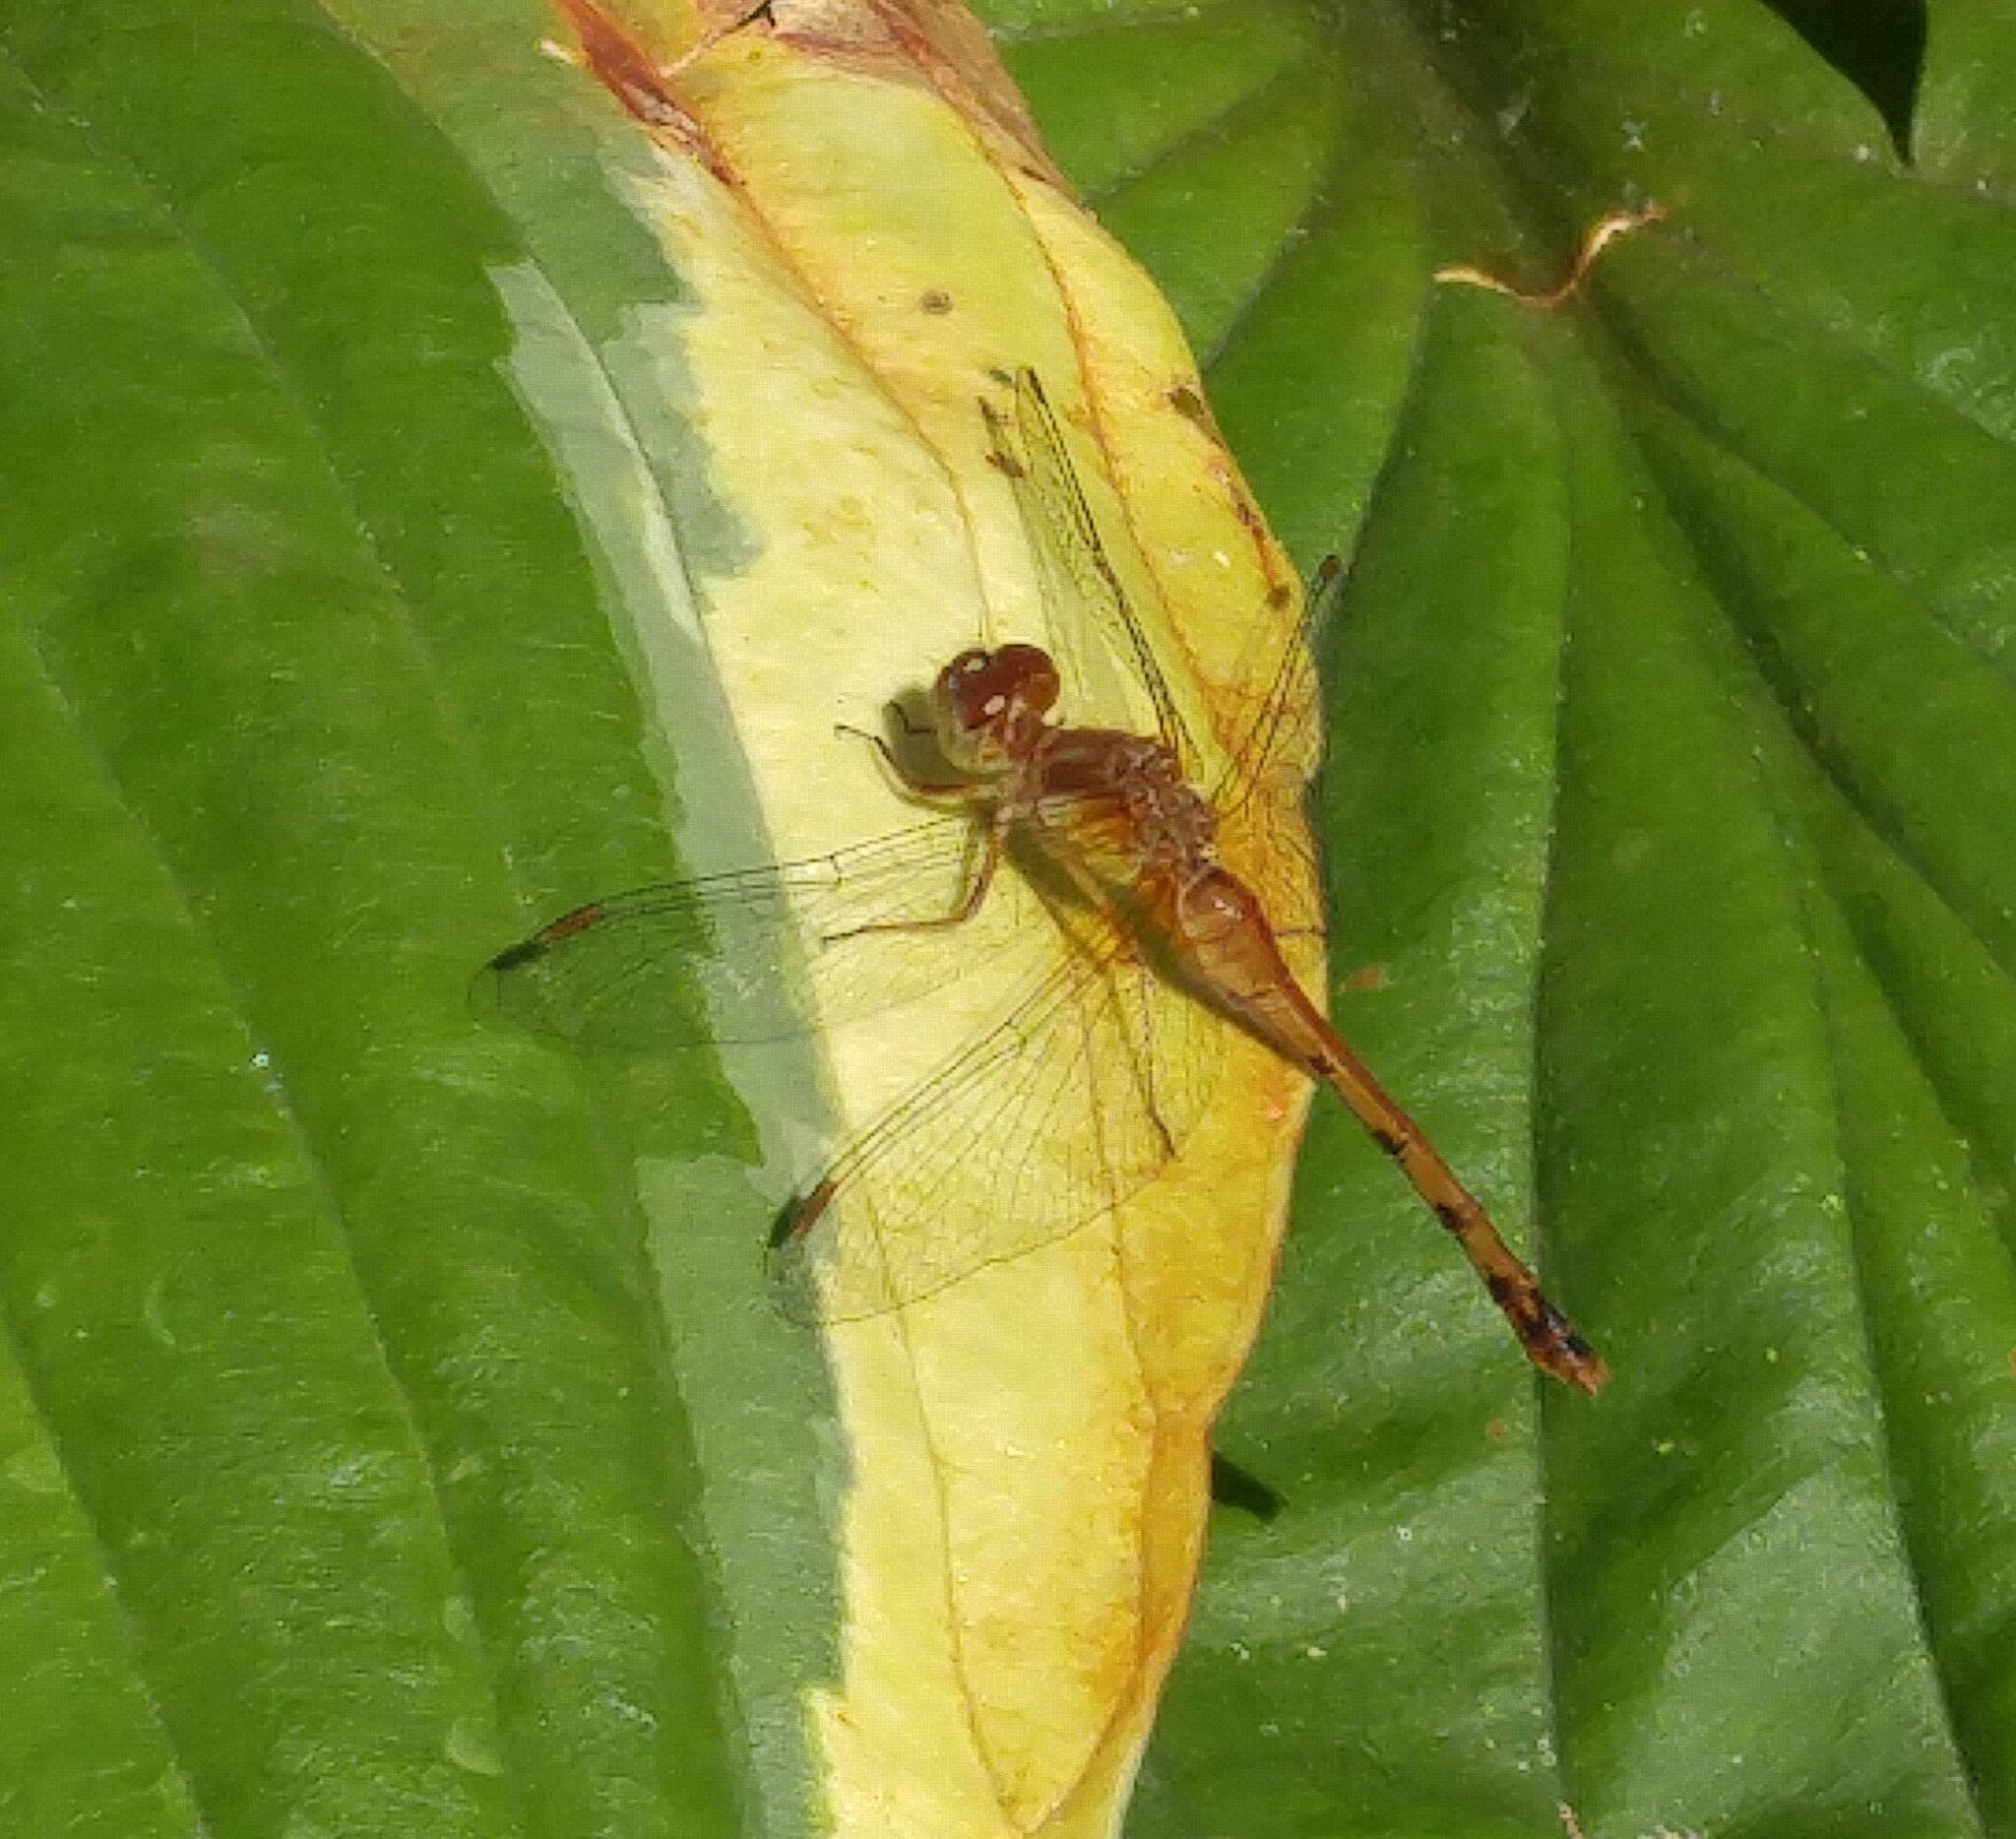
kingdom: Animalia
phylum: Arthropoda
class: Insecta
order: Odonata
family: Libellulidae
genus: Sympetrum
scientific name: Sympetrum vicinum
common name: Autumn meadowhawk
